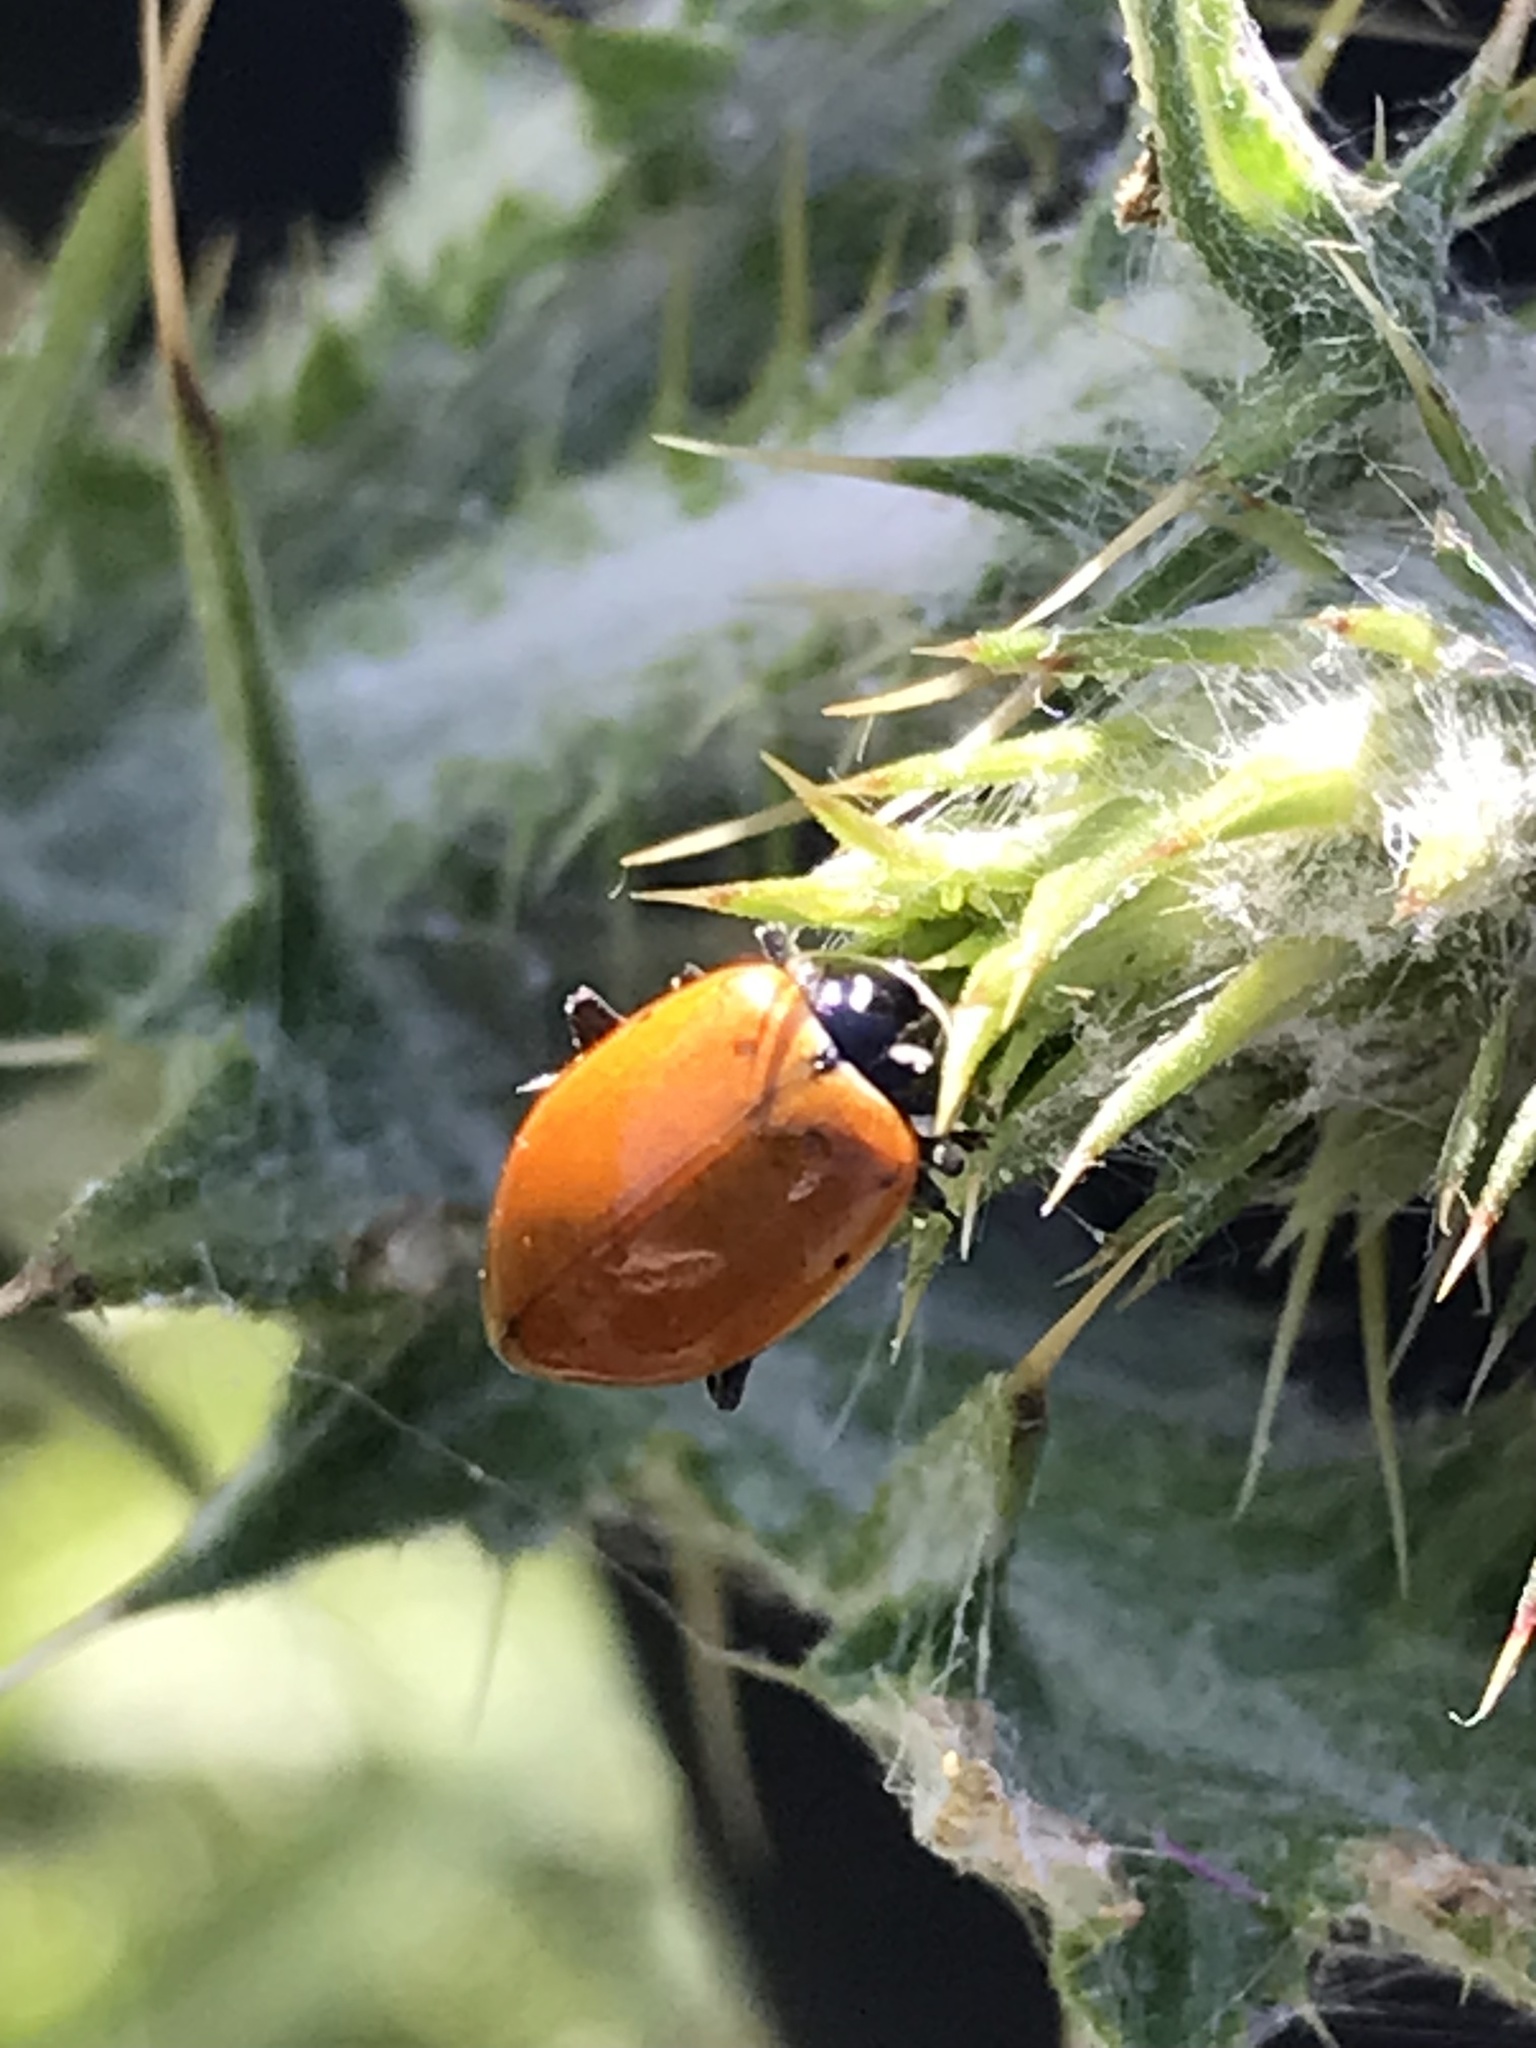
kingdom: Animalia
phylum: Arthropoda
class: Insecta
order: Coleoptera
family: Coccinellidae
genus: Hippodamia
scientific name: Hippodamia convergens
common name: Convergent lady beetle
